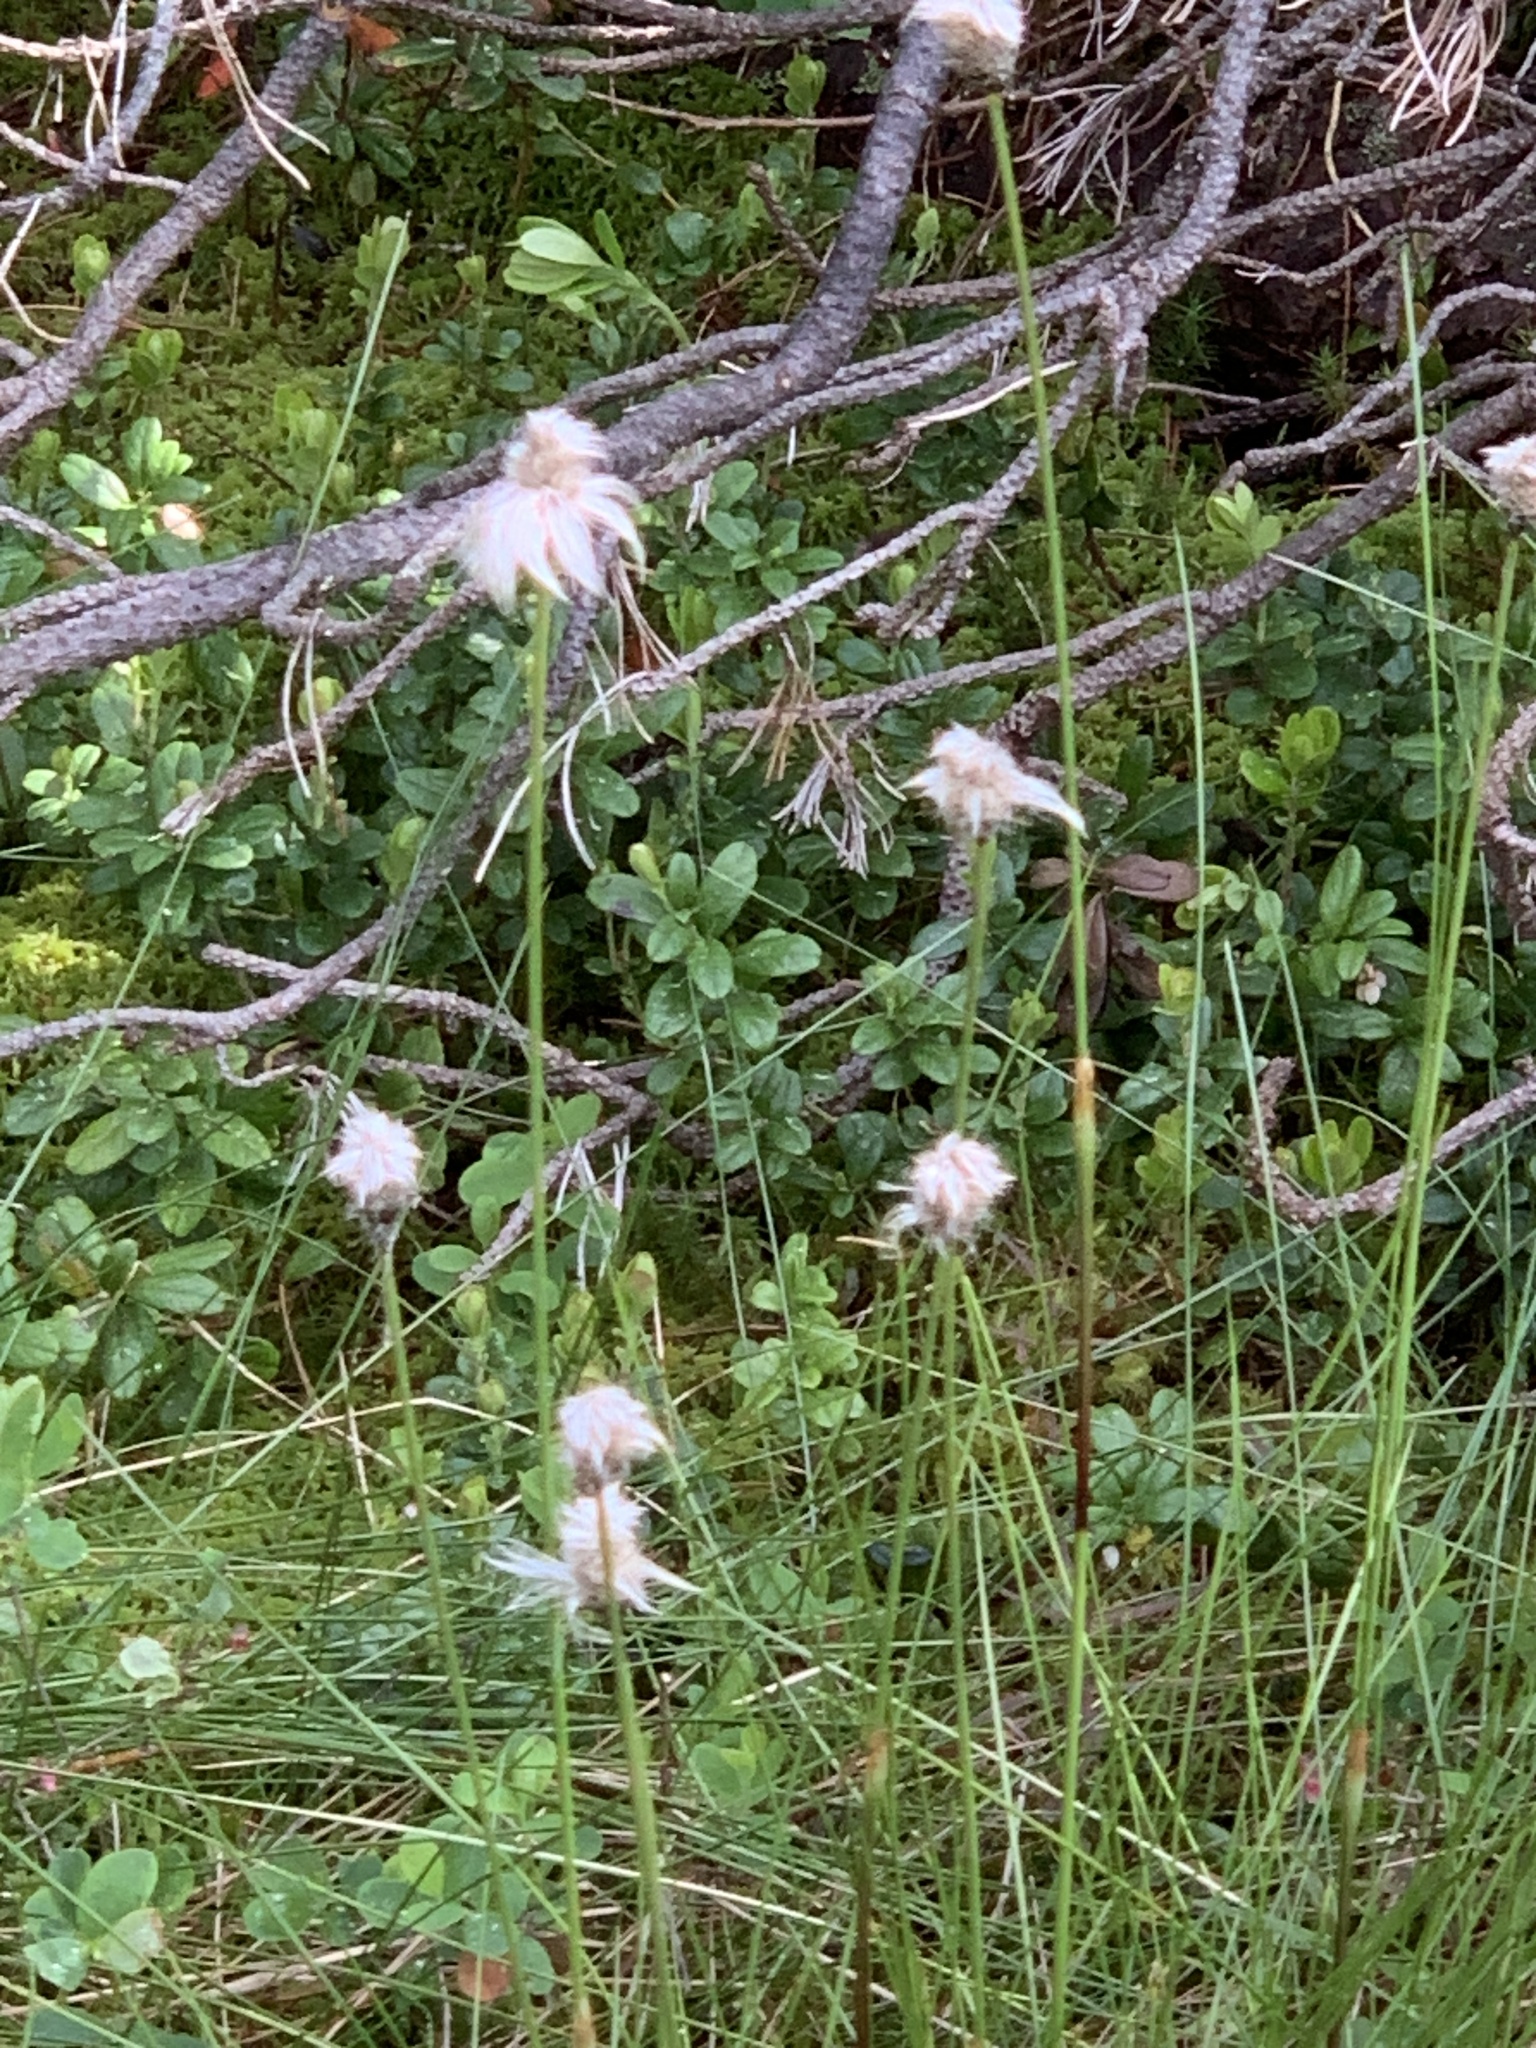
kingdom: Plantae
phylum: Tracheophyta
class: Liliopsida
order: Poales
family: Cyperaceae
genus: Eriophorum
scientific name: Eriophorum vaginatum
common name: Hare's-tail cottongrass
